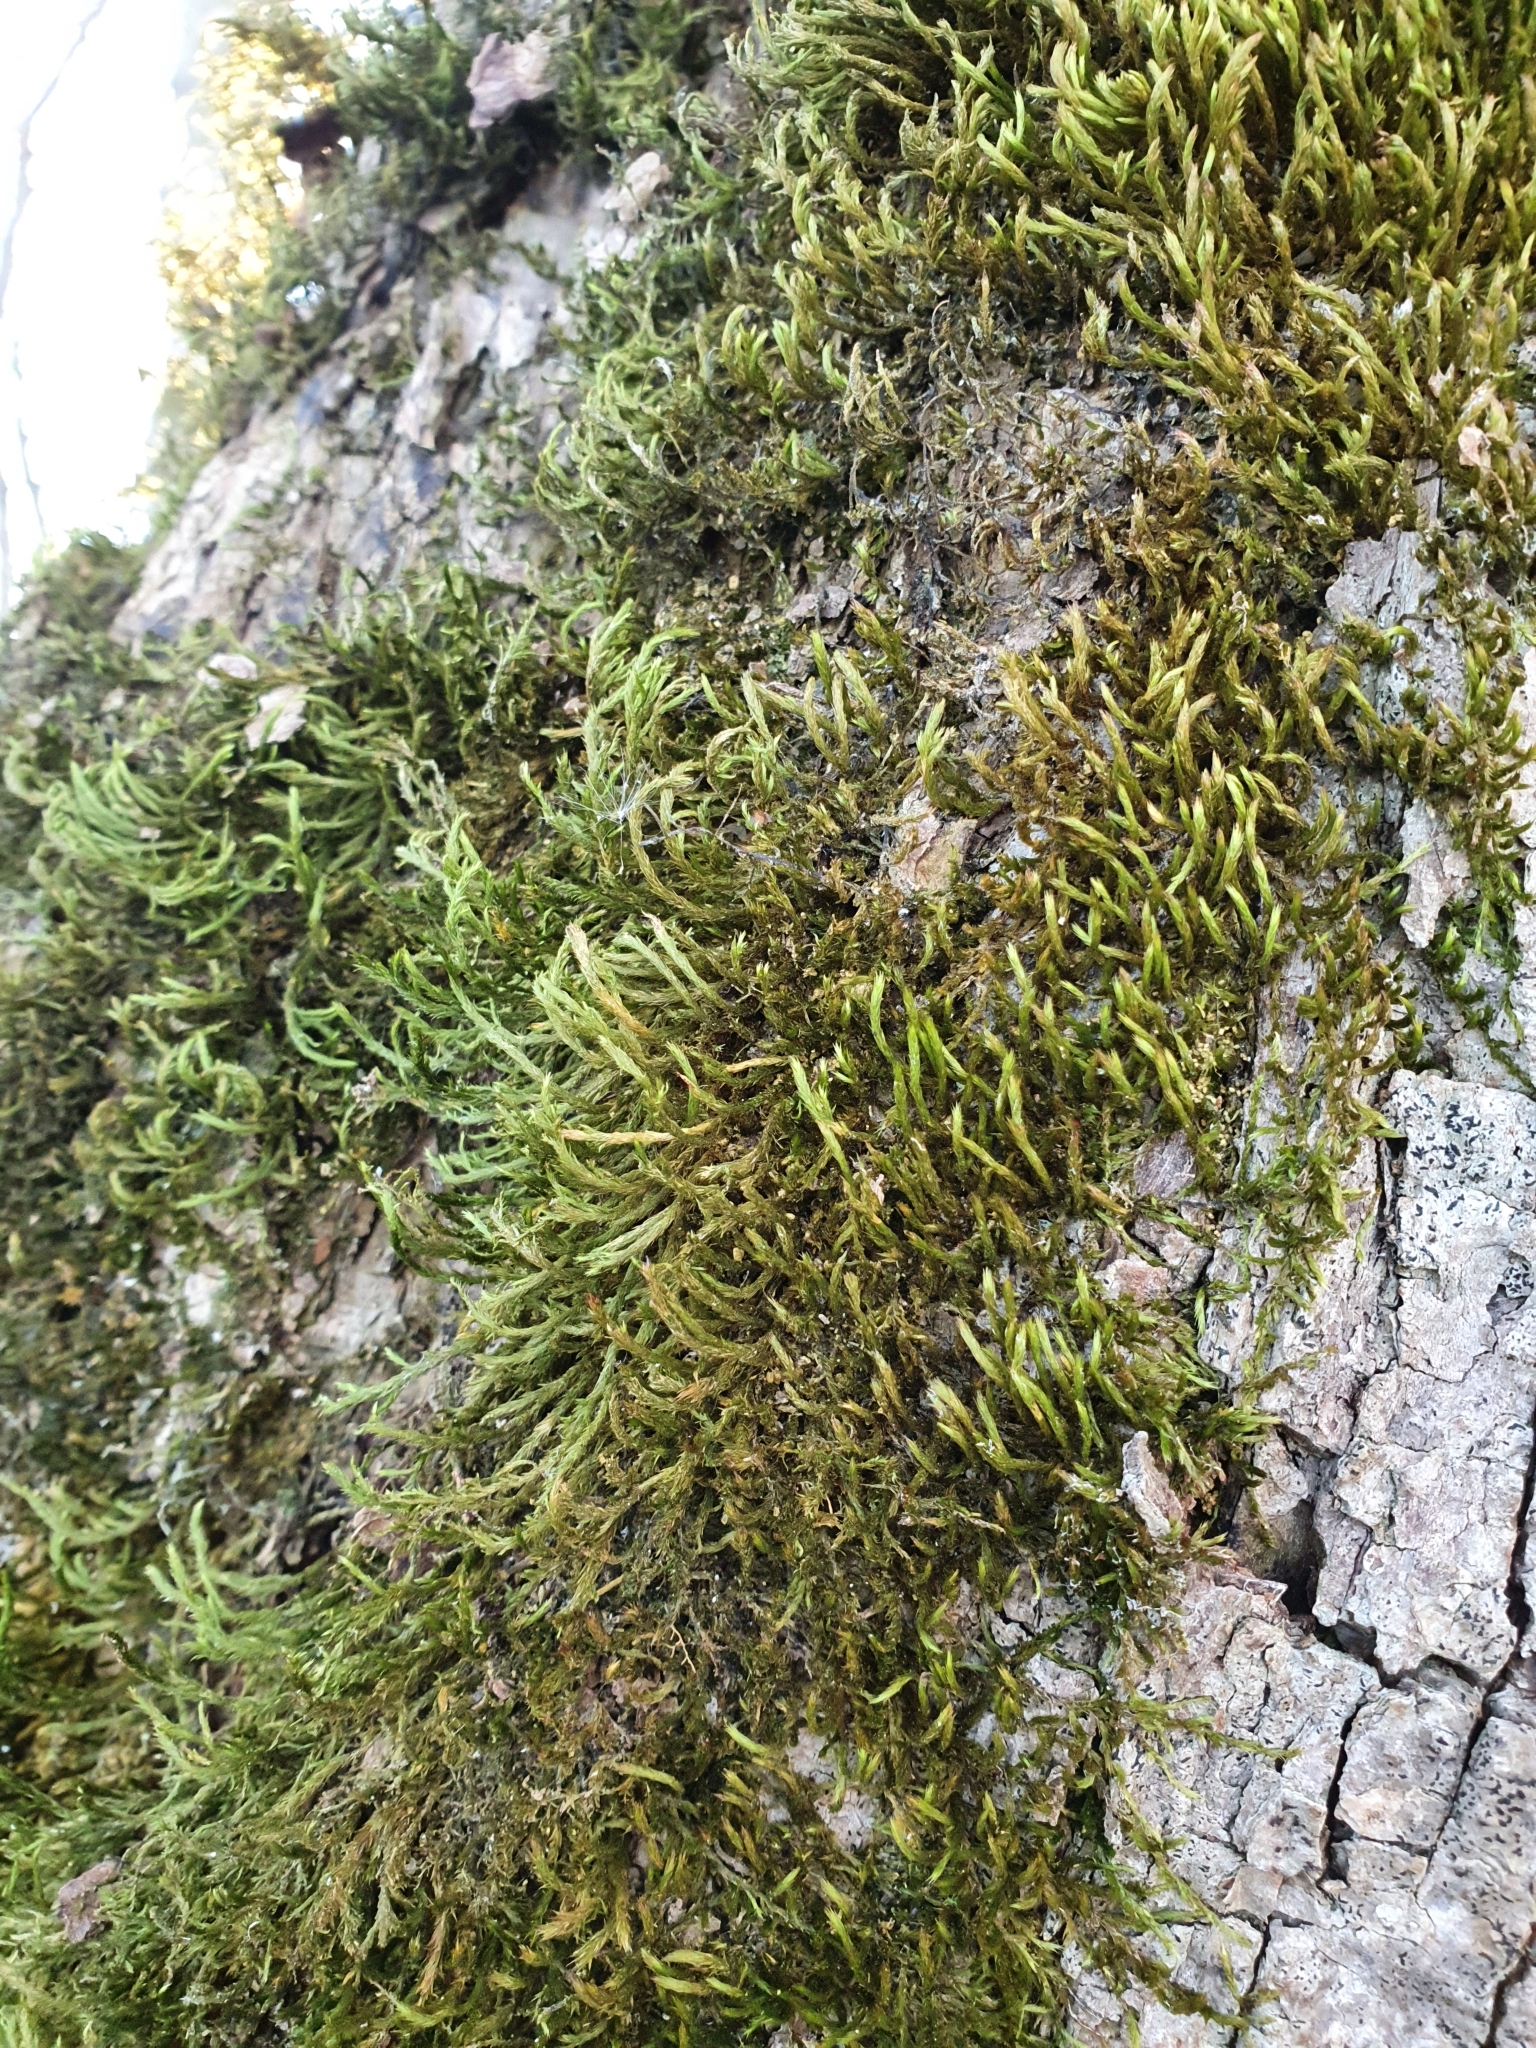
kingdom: Plantae
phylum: Bryophyta
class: Bryopsida
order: Hypnales
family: Leucodontaceae
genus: Leucodon
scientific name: Leucodon sciuroides
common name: Squirrel-tail moss
